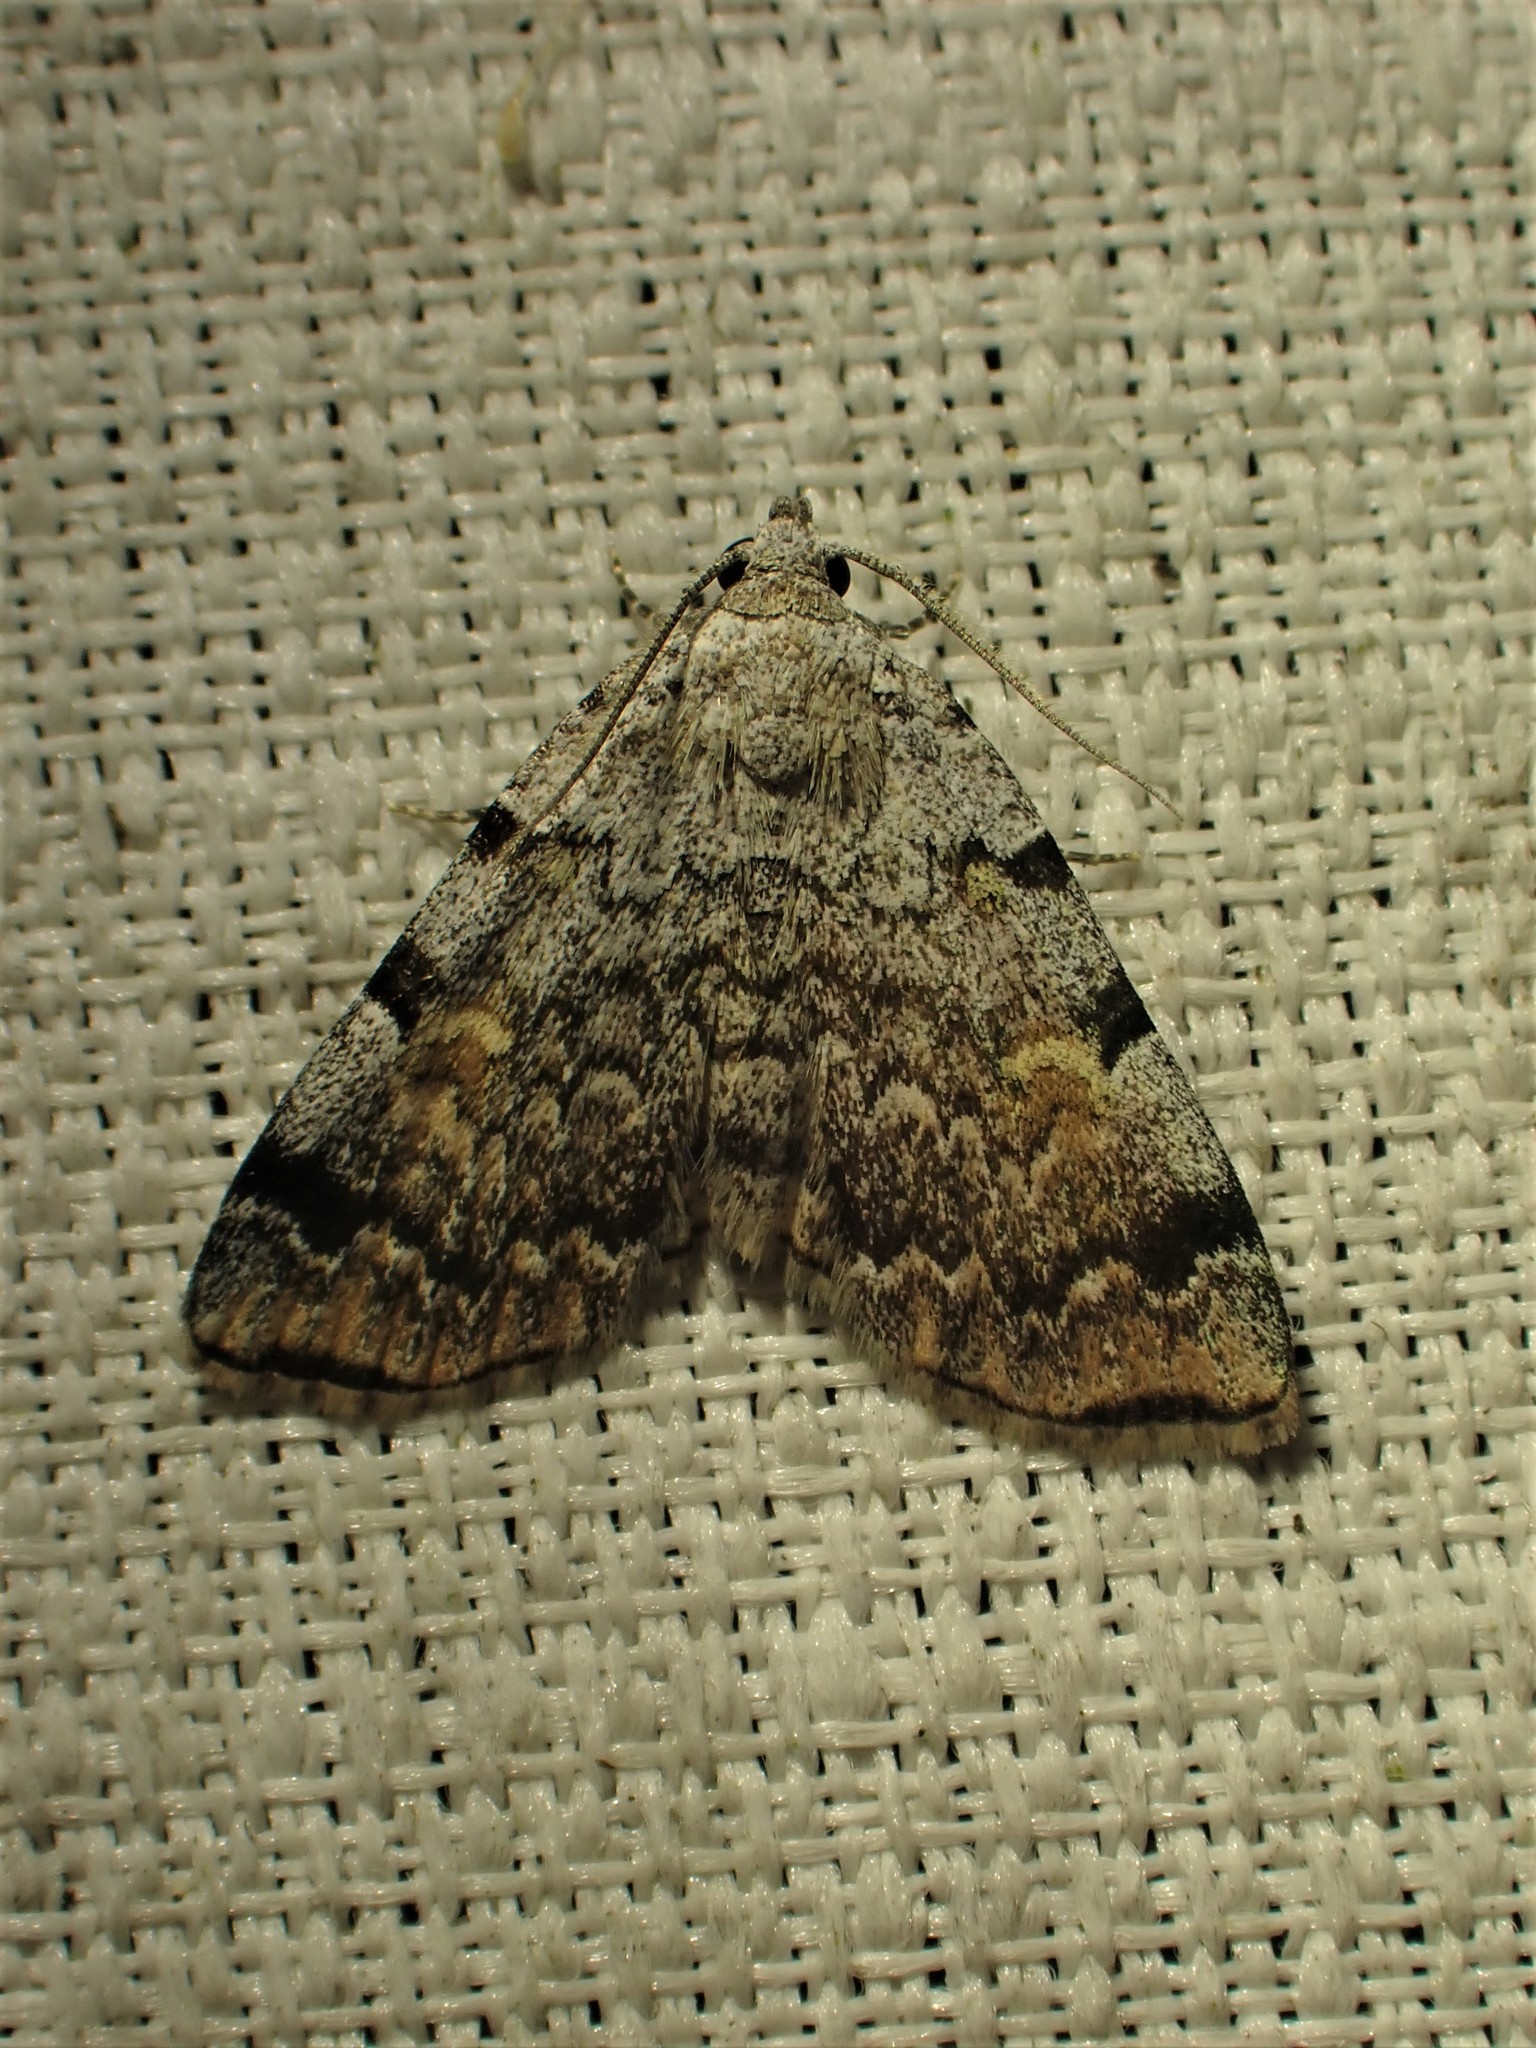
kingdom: Animalia
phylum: Arthropoda
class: Insecta
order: Lepidoptera
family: Erebidae
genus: Idia
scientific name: Idia americalis
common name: American idia moth
